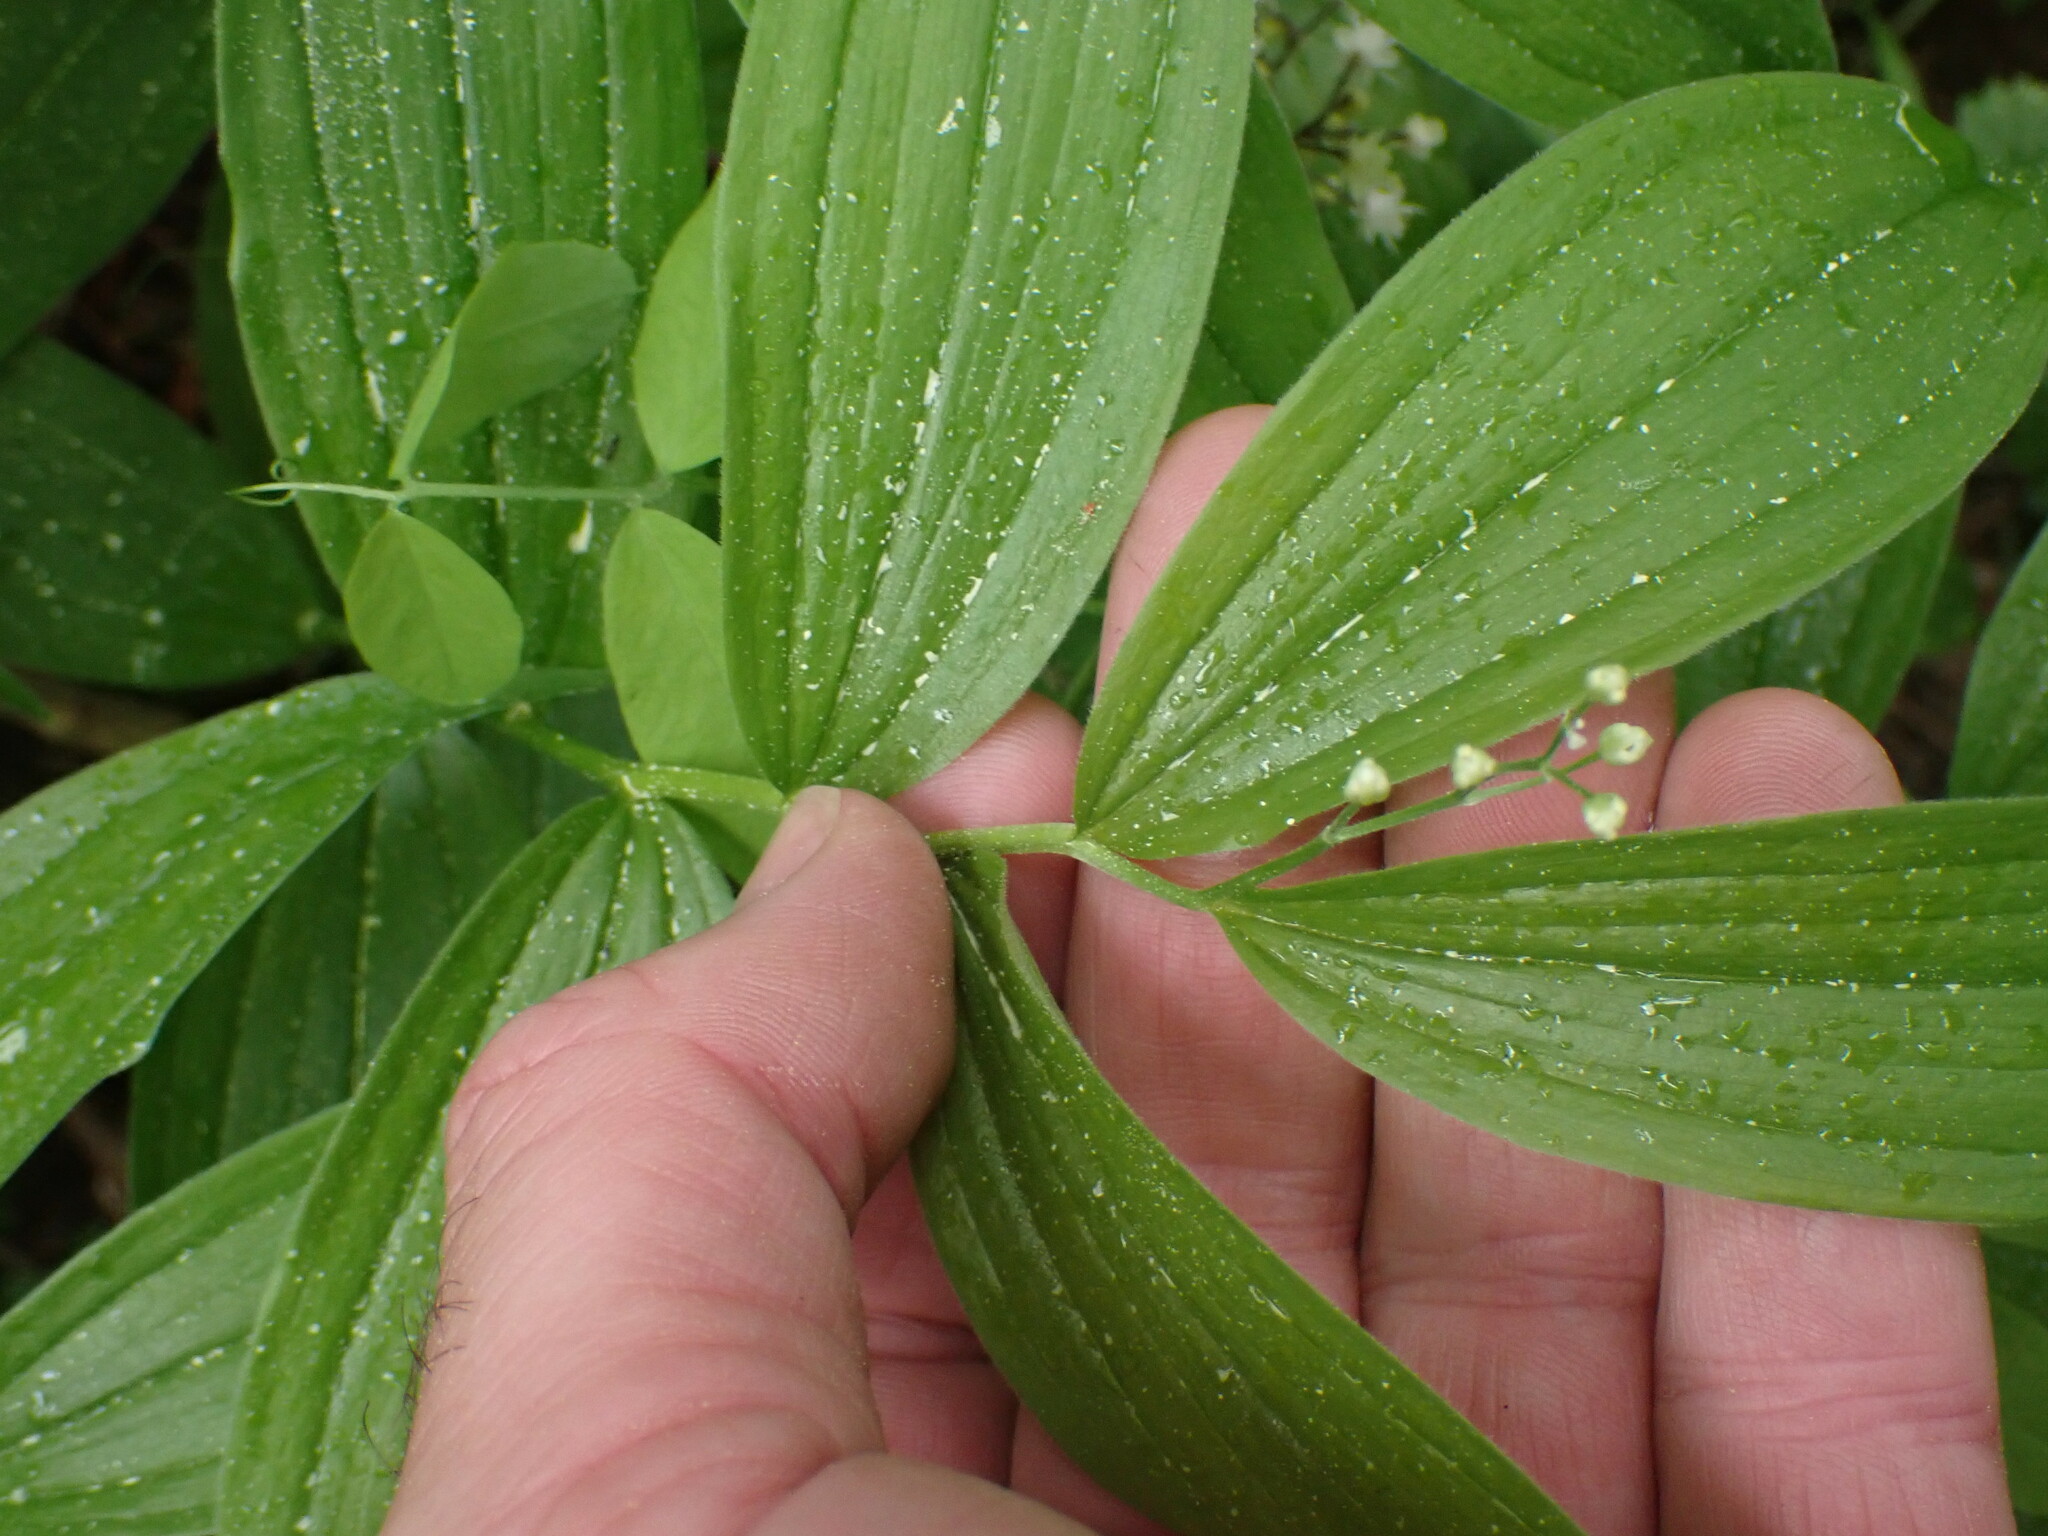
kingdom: Plantae
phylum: Tracheophyta
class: Liliopsida
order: Asparagales
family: Asparagaceae
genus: Maianthemum
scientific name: Maianthemum stellatum
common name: Little false solomon's seal
